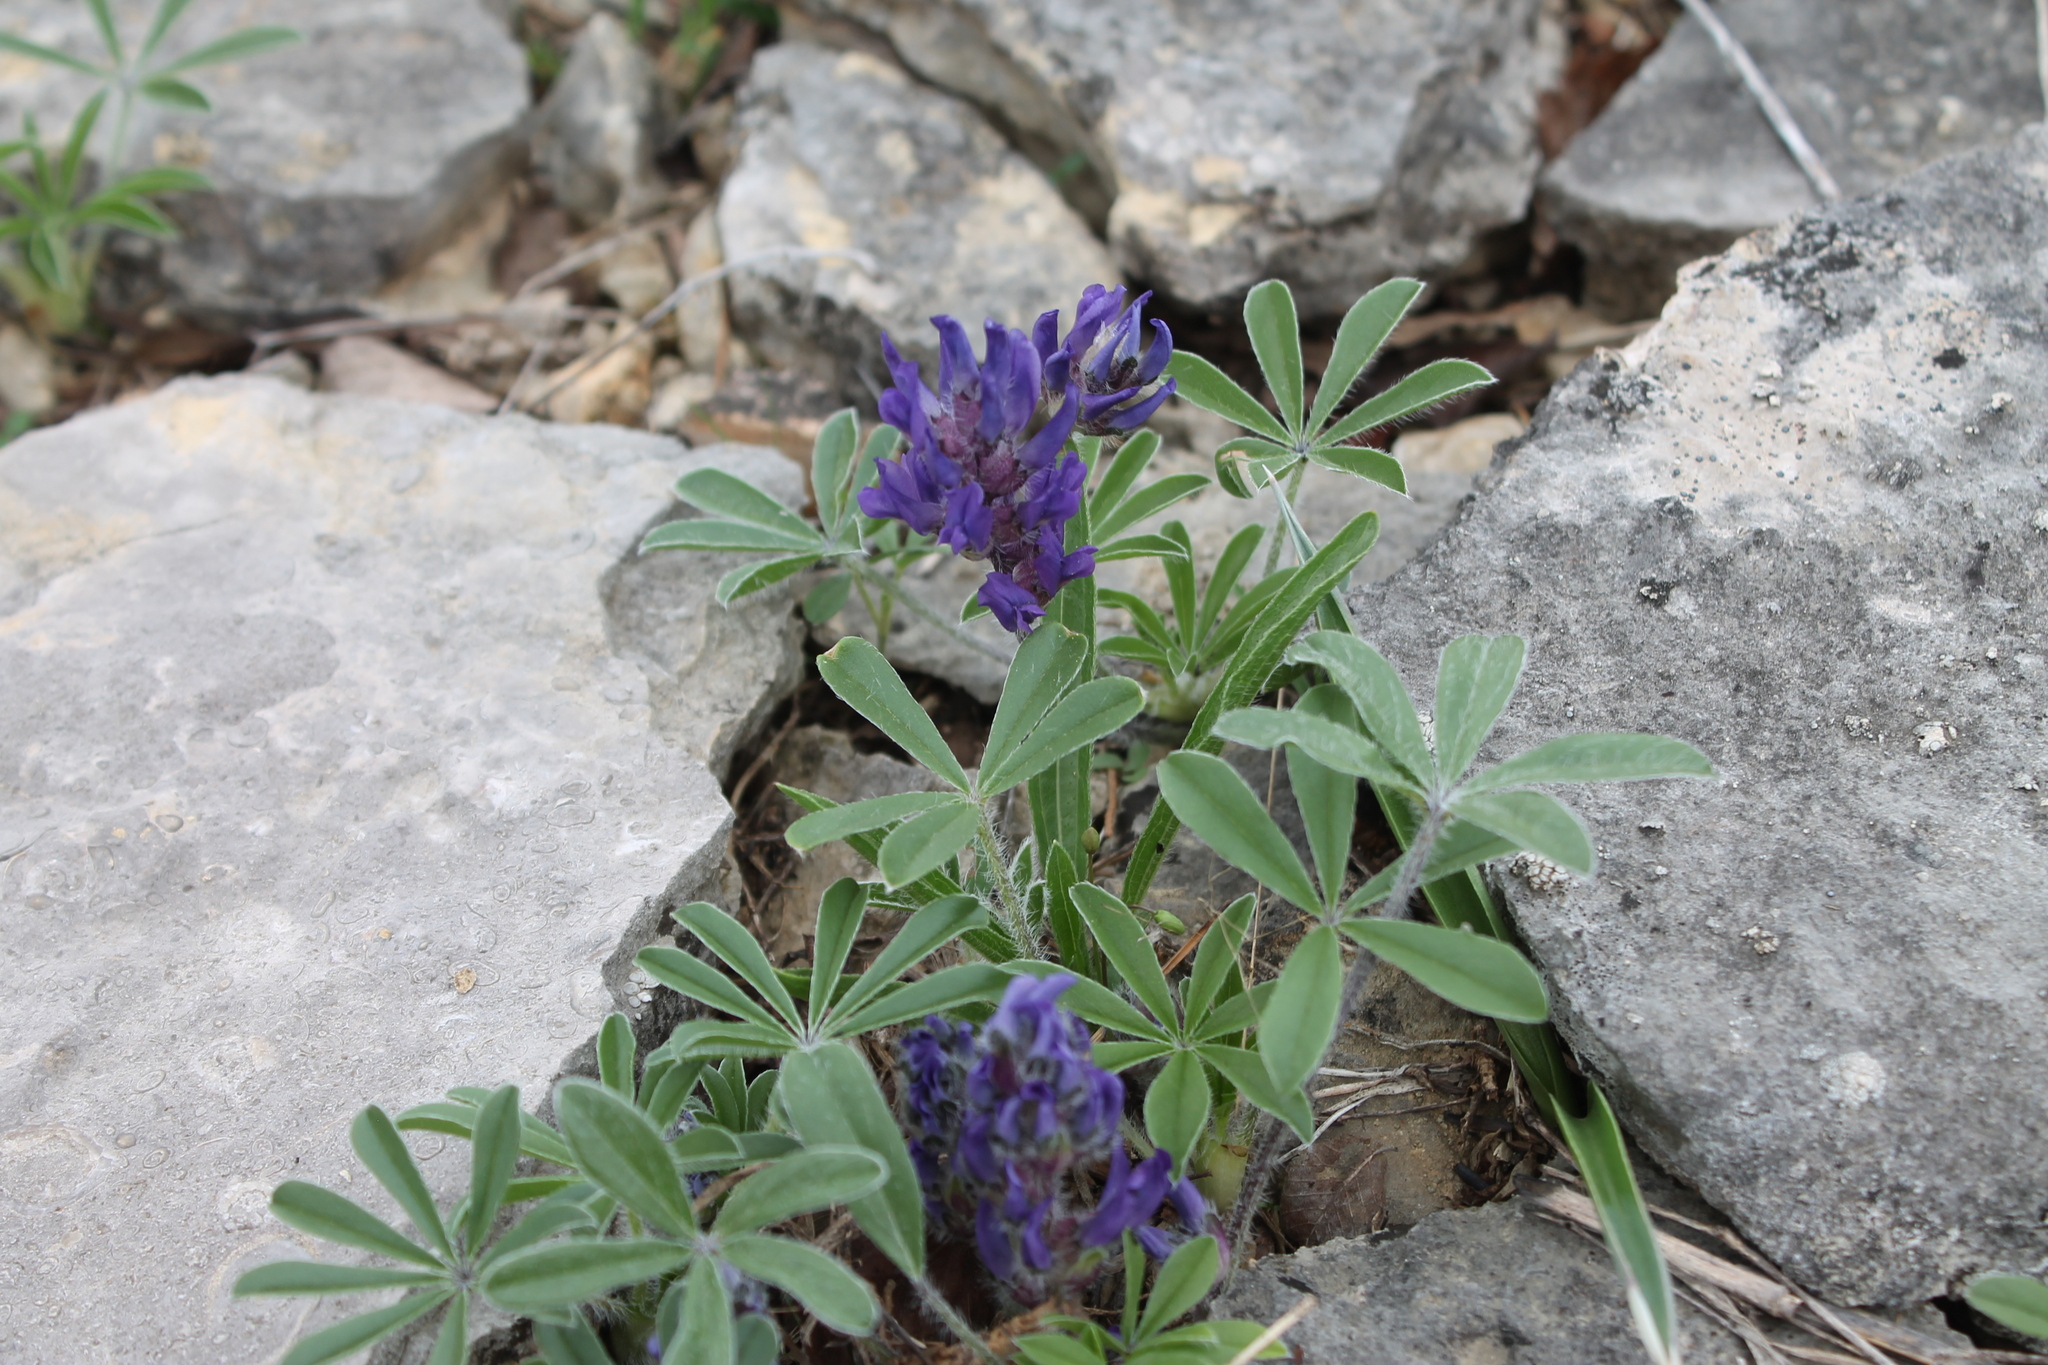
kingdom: Plantae
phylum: Tracheophyta
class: Magnoliopsida
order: Fabales
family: Fabaceae
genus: Pediomelum
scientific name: Pediomelum subacaule
